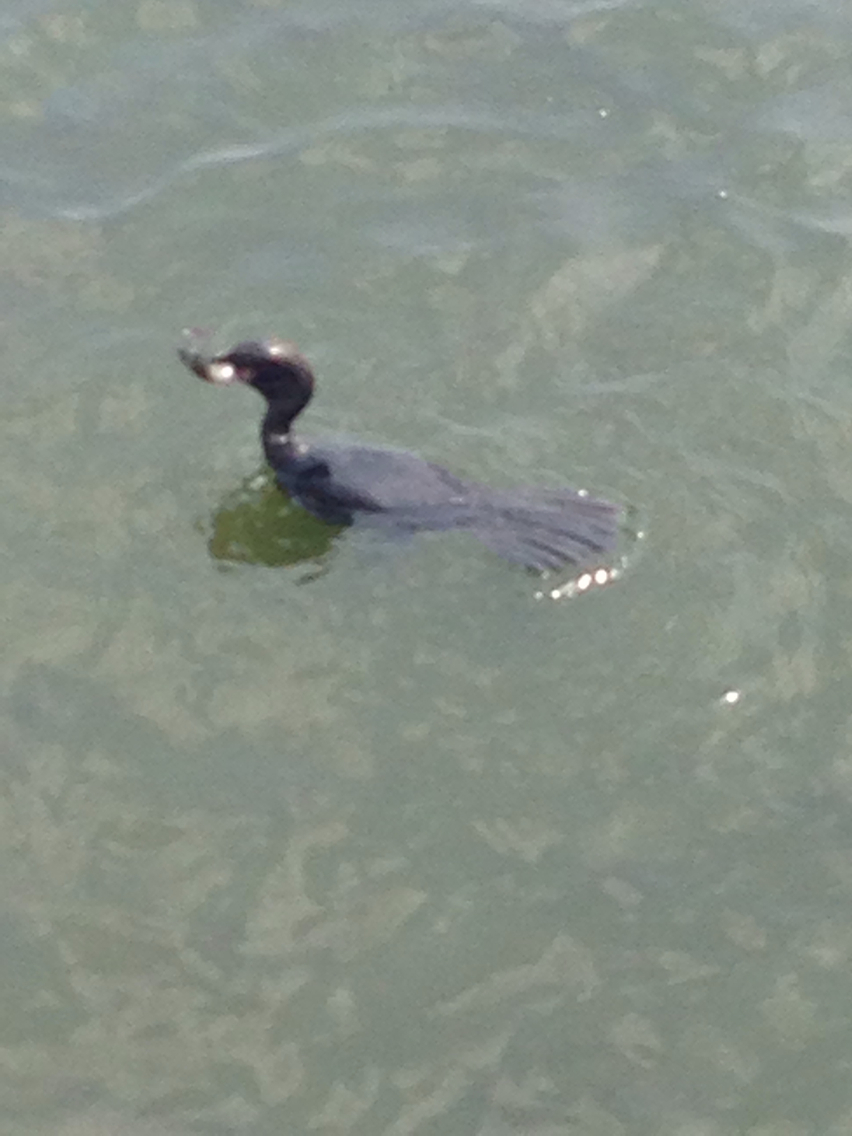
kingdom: Animalia
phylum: Chordata
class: Aves
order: Suliformes
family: Phalacrocoracidae
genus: Phalacrocorax
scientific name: Phalacrocorax carbo
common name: Great cormorant
